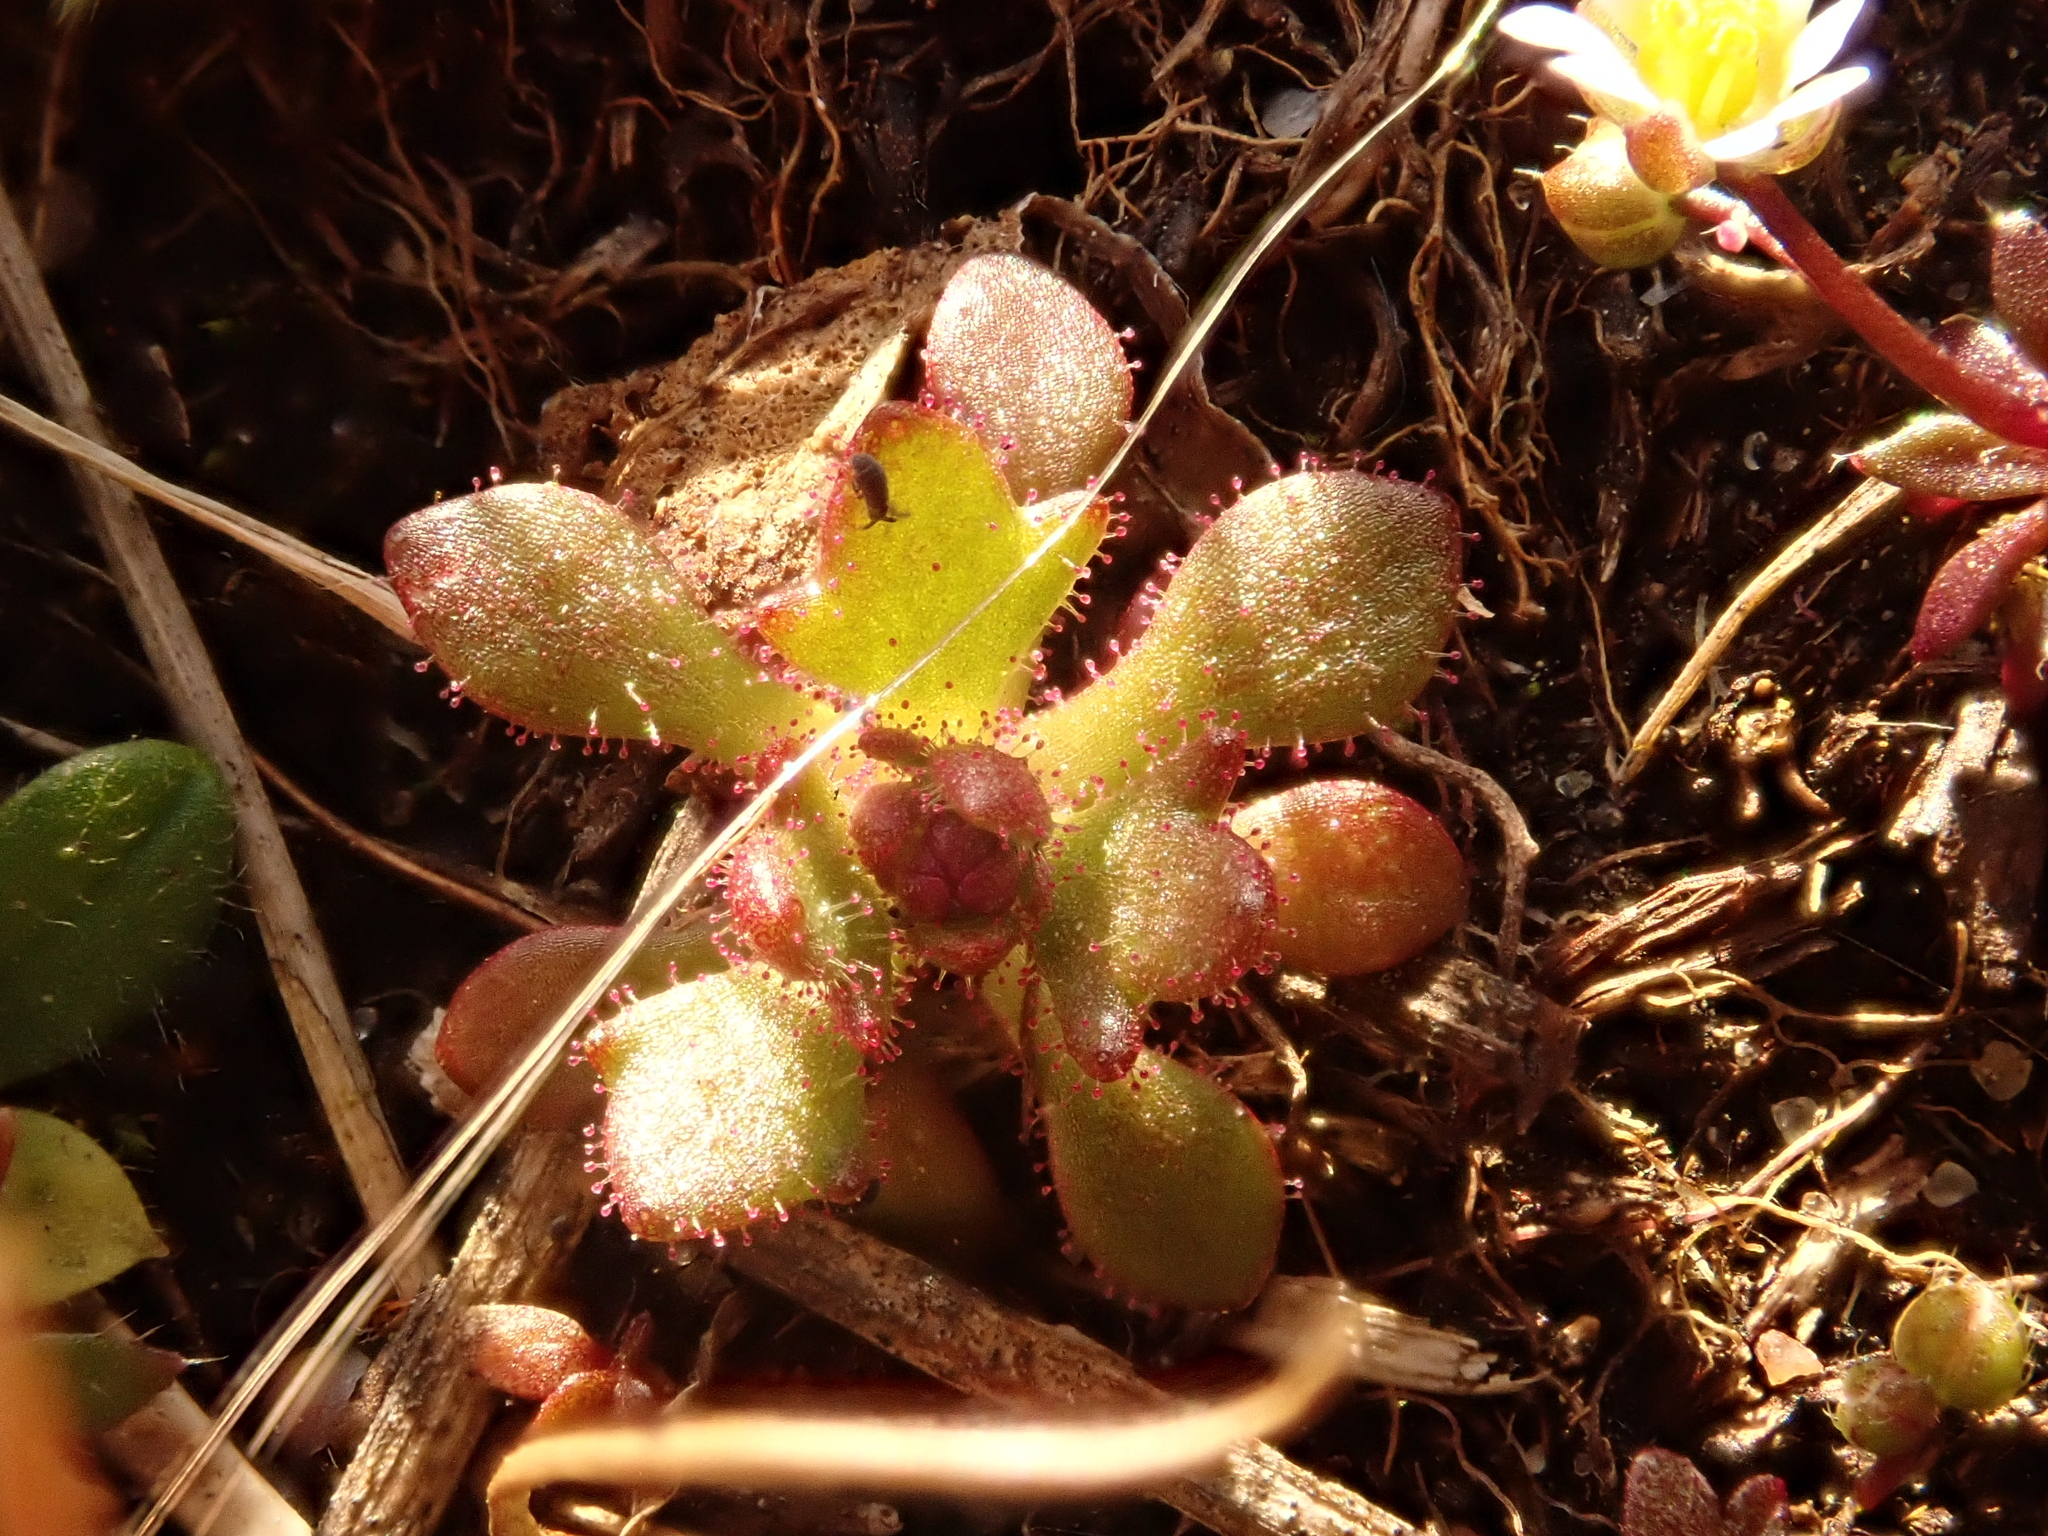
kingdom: Plantae
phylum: Tracheophyta
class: Magnoliopsida
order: Saxifragales
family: Saxifragaceae
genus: Saxifraga
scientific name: Saxifraga tridactylites
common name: Rue-leaved saxifrage
